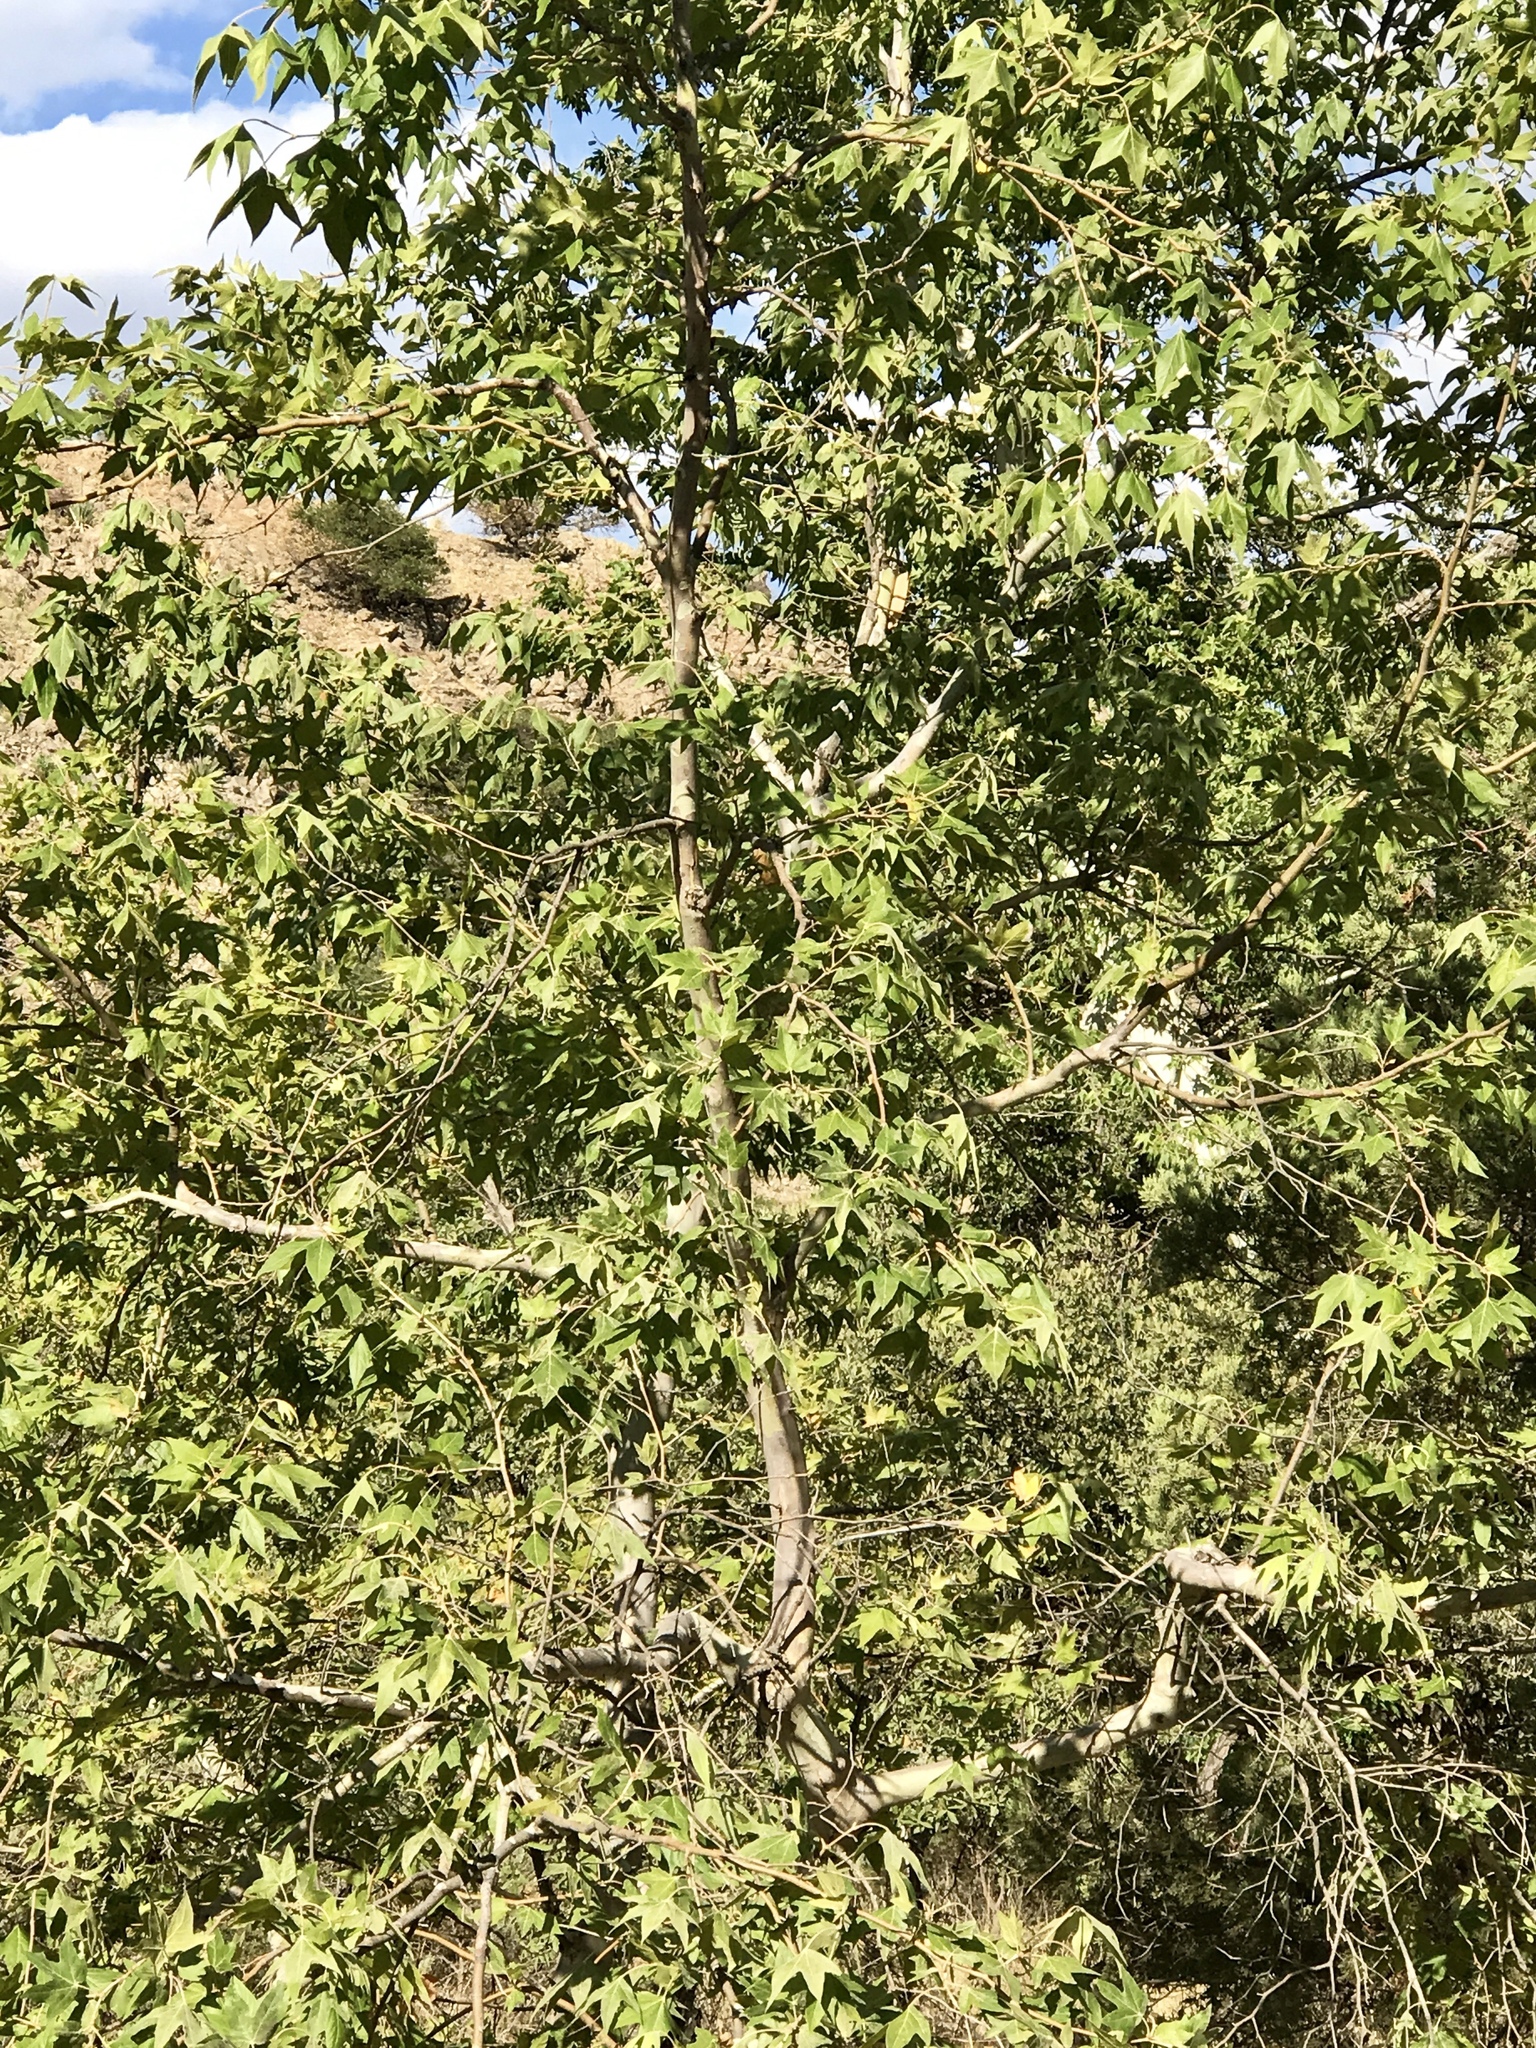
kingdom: Plantae
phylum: Tracheophyta
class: Magnoliopsida
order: Proteales
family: Platanaceae
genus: Platanus
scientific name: Platanus wrightii
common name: Arizona sycamore
